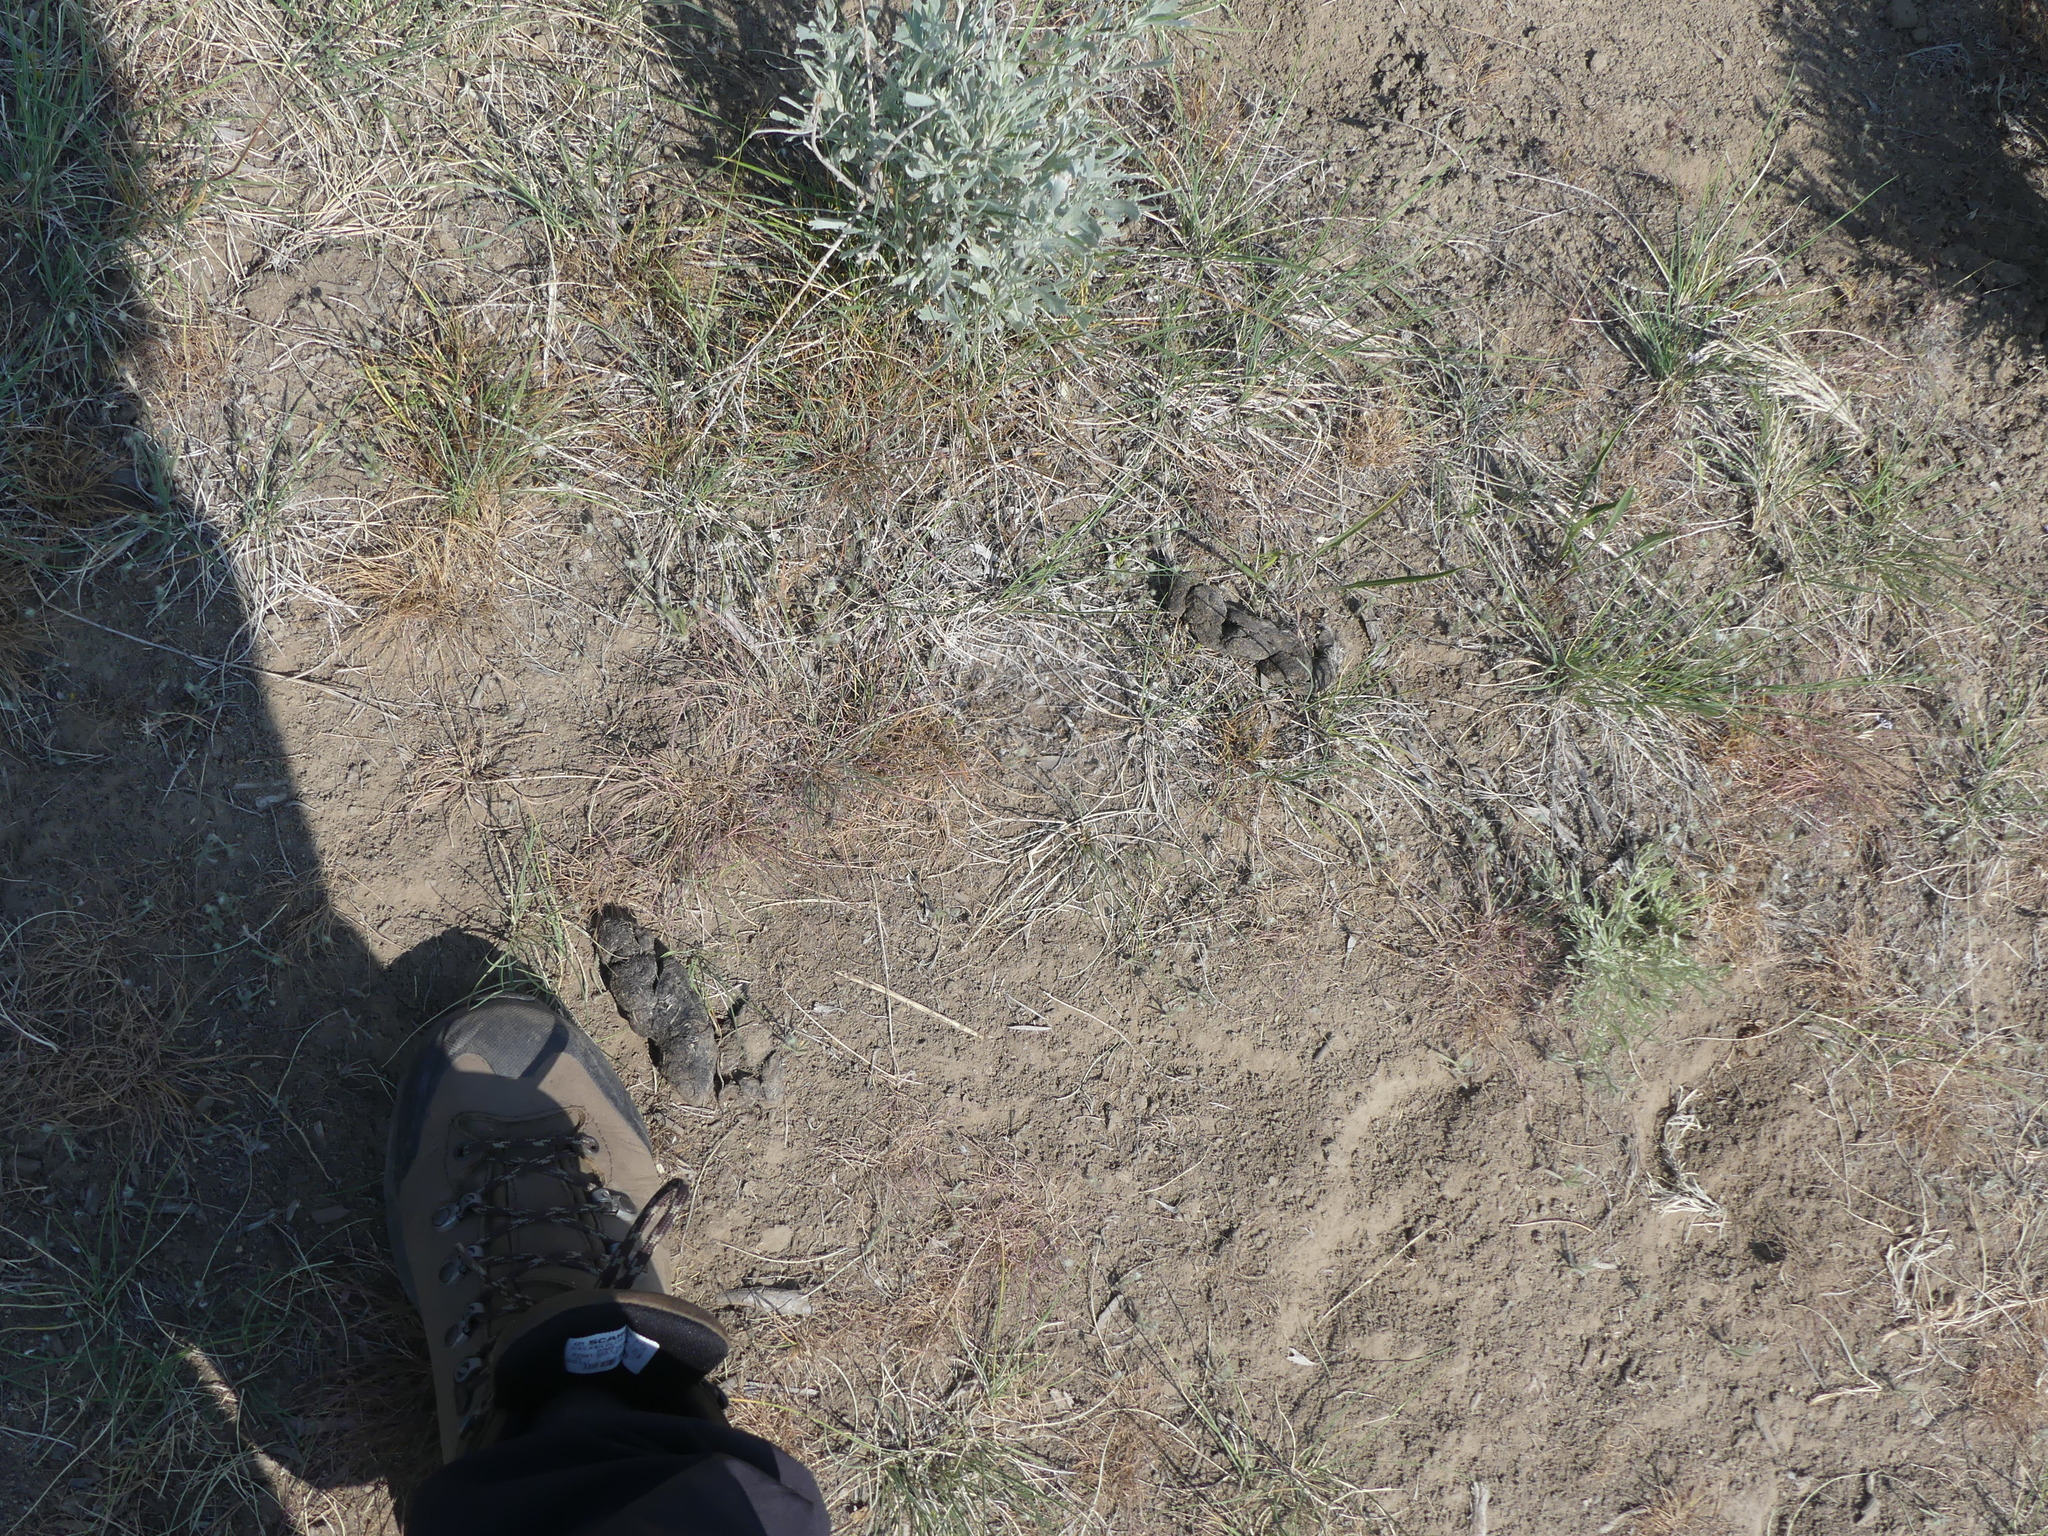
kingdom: Animalia
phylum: Chordata
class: Mammalia
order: Carnivora
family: Canidae
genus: Canis
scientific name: Canis latrans
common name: Coyote
